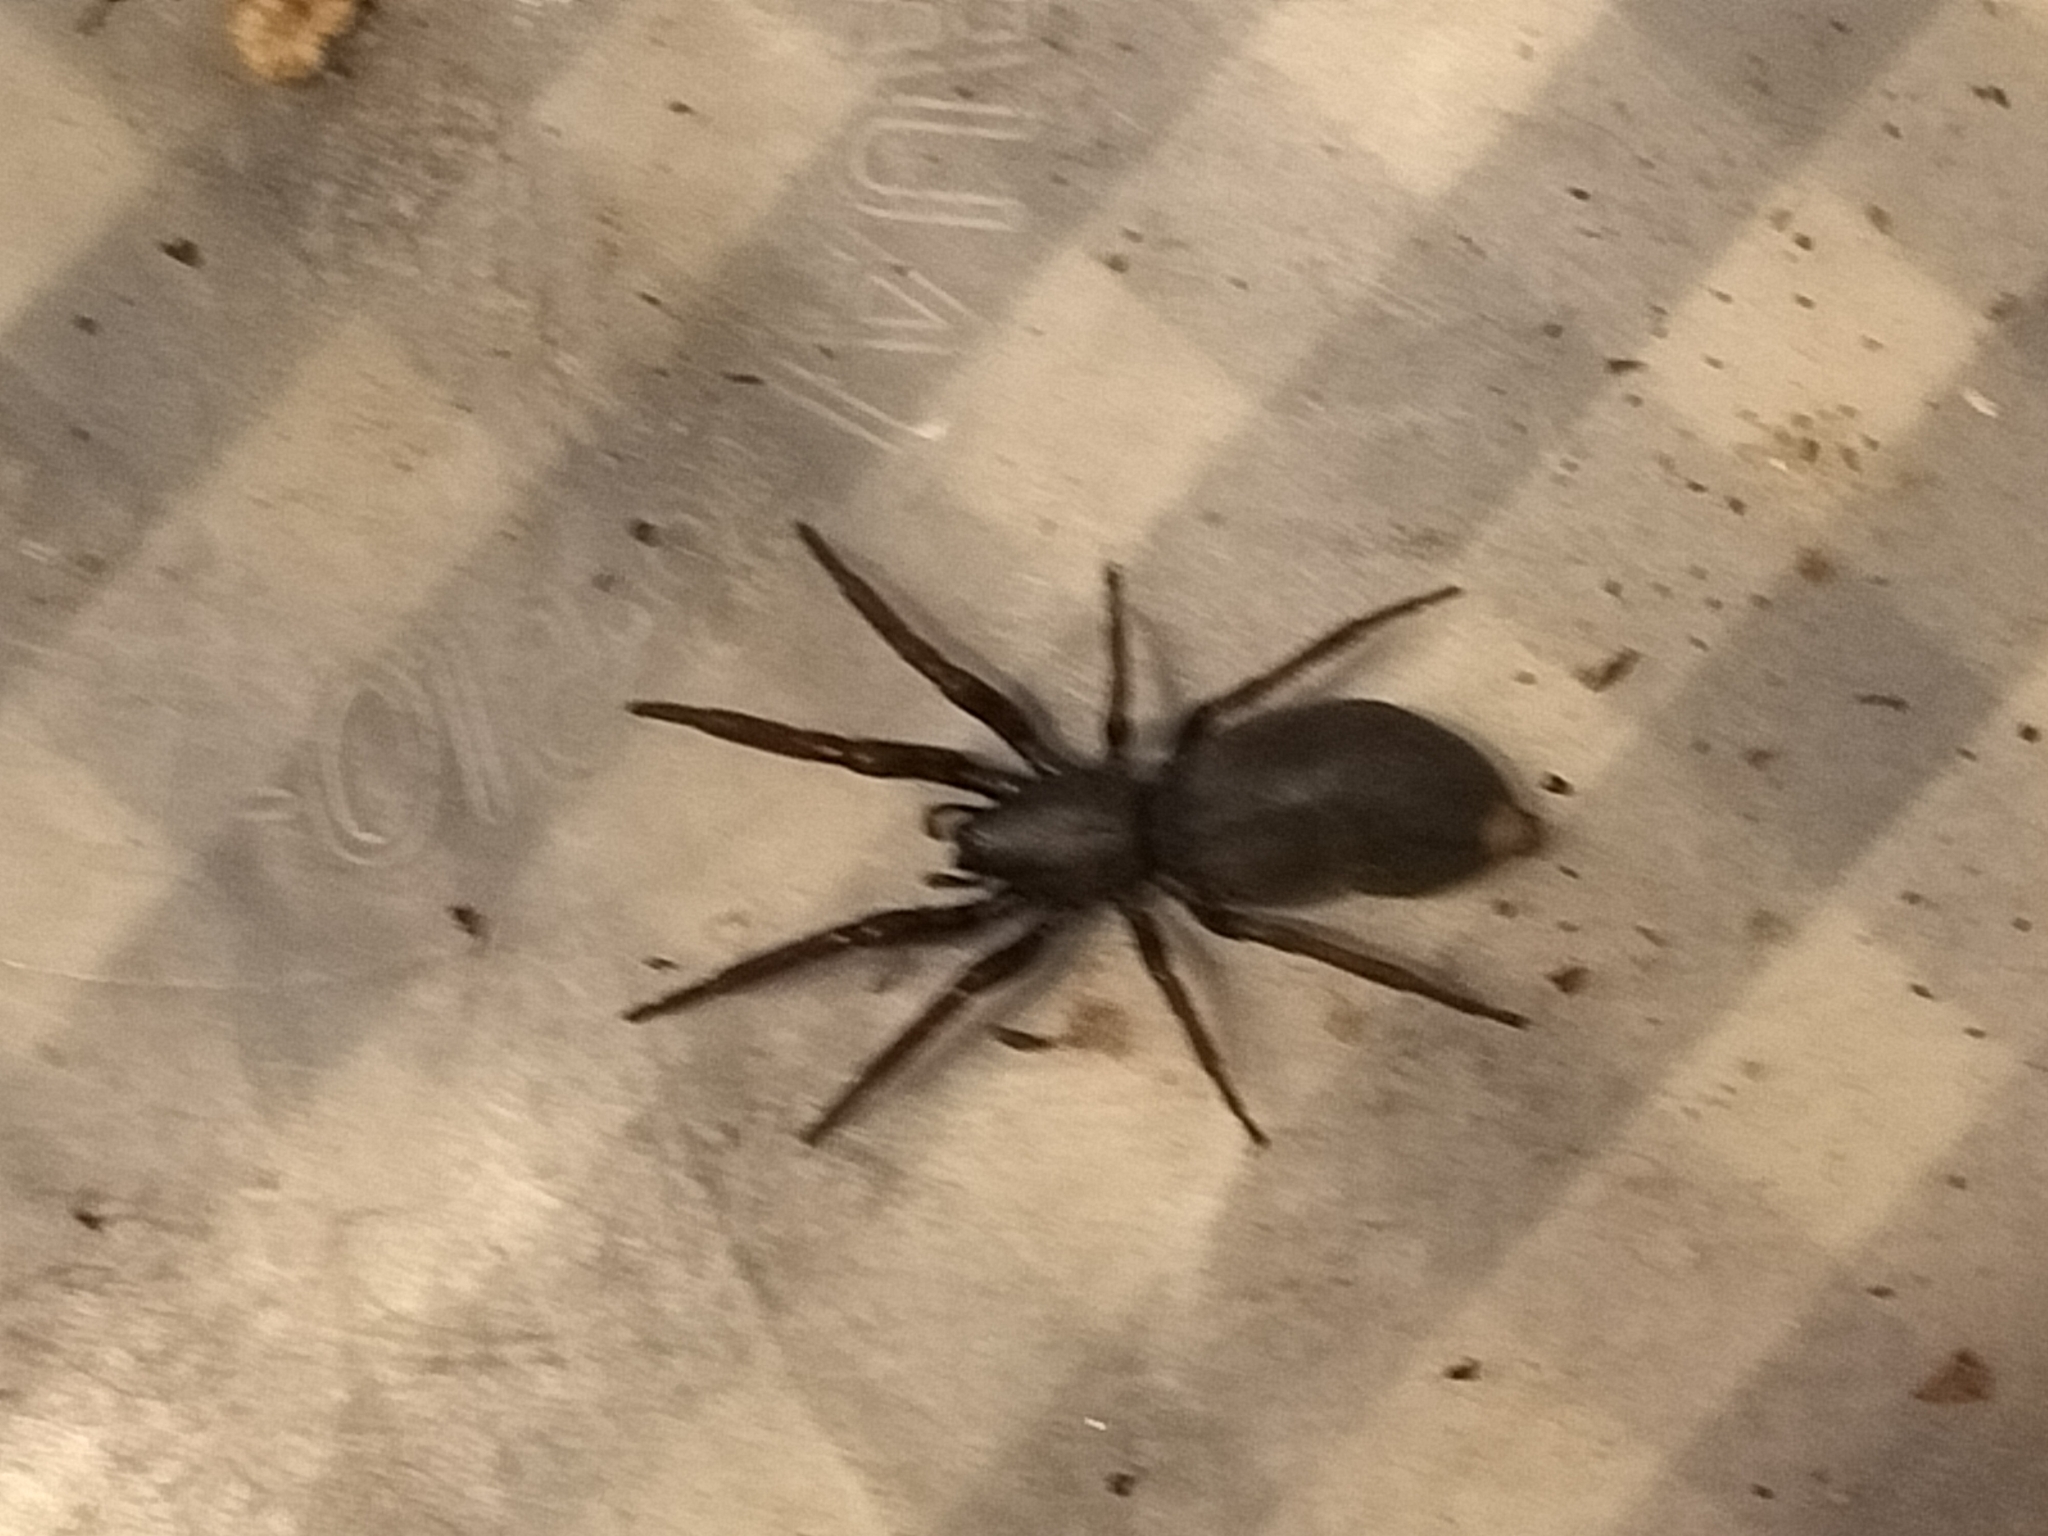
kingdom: Animalia
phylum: Arthropoda
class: Arachnida
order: Araneae
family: Lamponidae
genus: Lampona
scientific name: Lampona cylindrata
